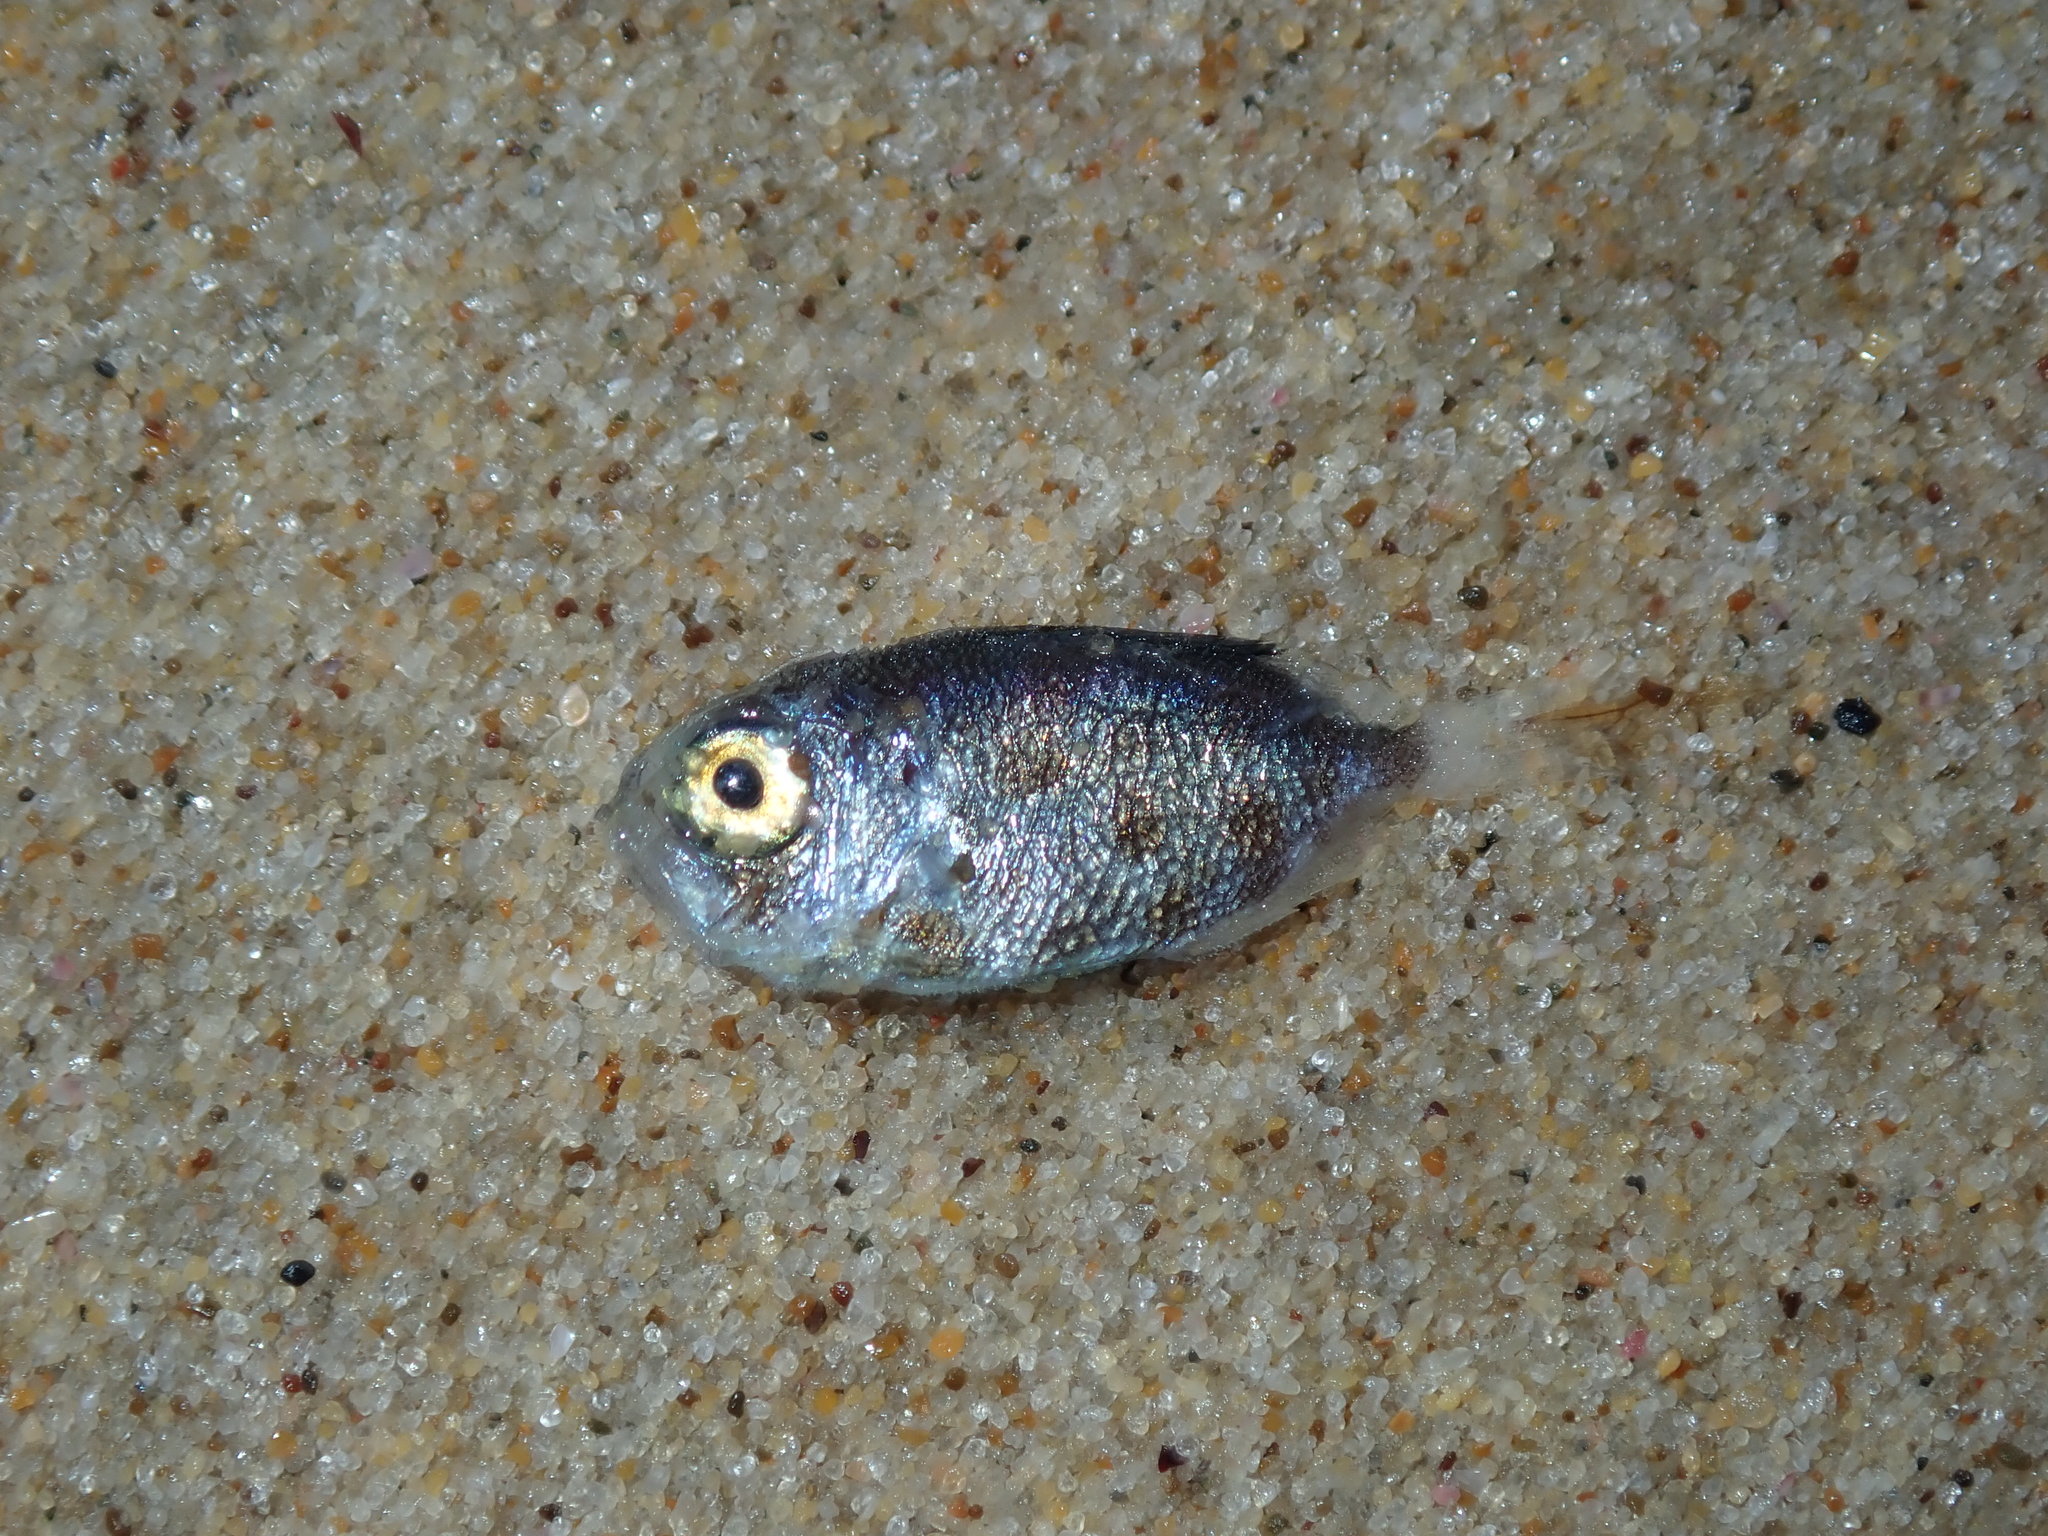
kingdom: Animalia
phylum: Chordata
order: Perciformes
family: Priacanthidae
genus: Priacanthus
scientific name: Priacanthus macracanthus
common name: Red bigeye
